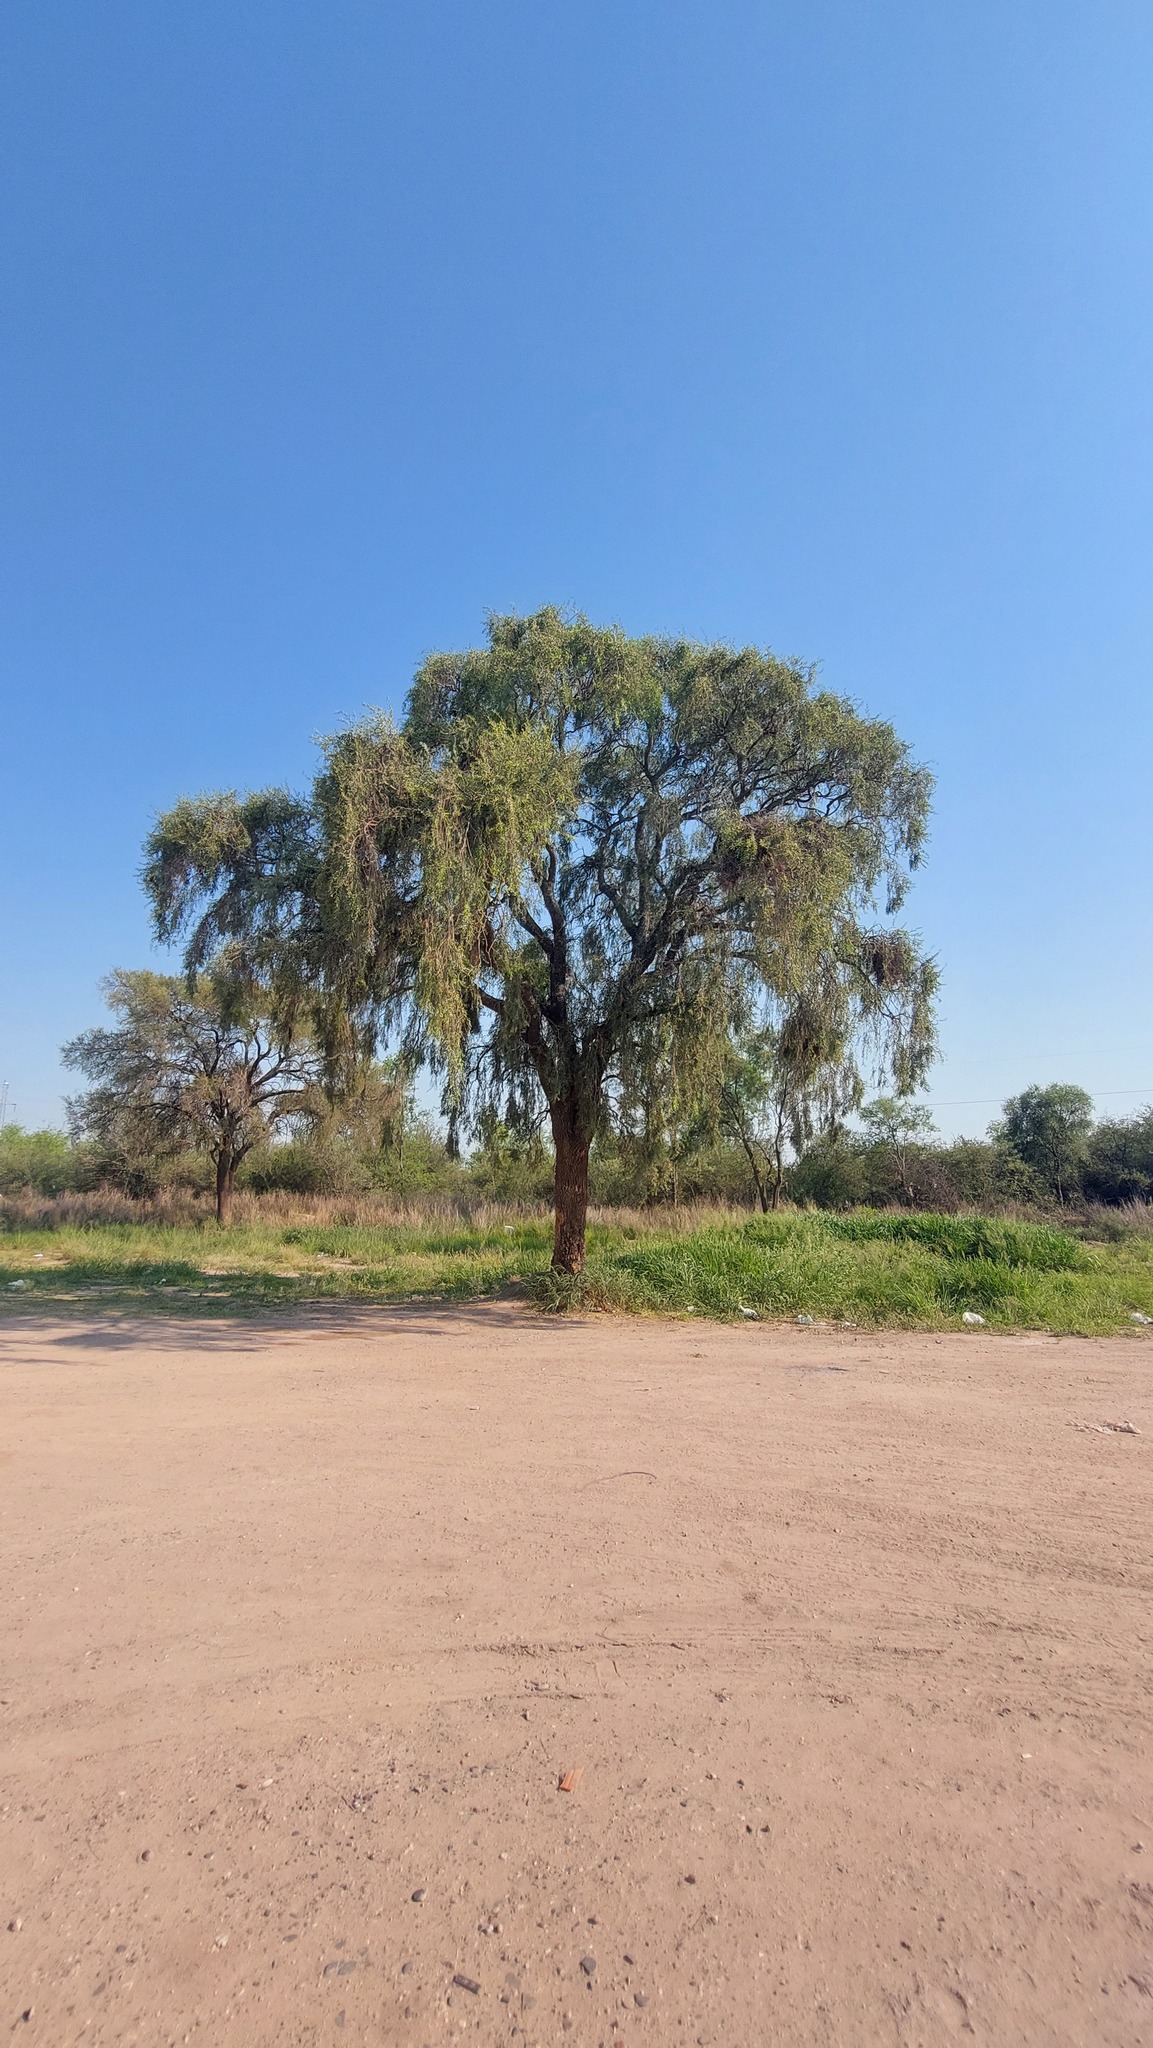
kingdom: Plantae
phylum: Tracheophyta
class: Magnoliopsida
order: Gentianales
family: Apocynaceae
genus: Aspidosperma
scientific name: Aspidosperma quebracho-blanco
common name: White quebracho
